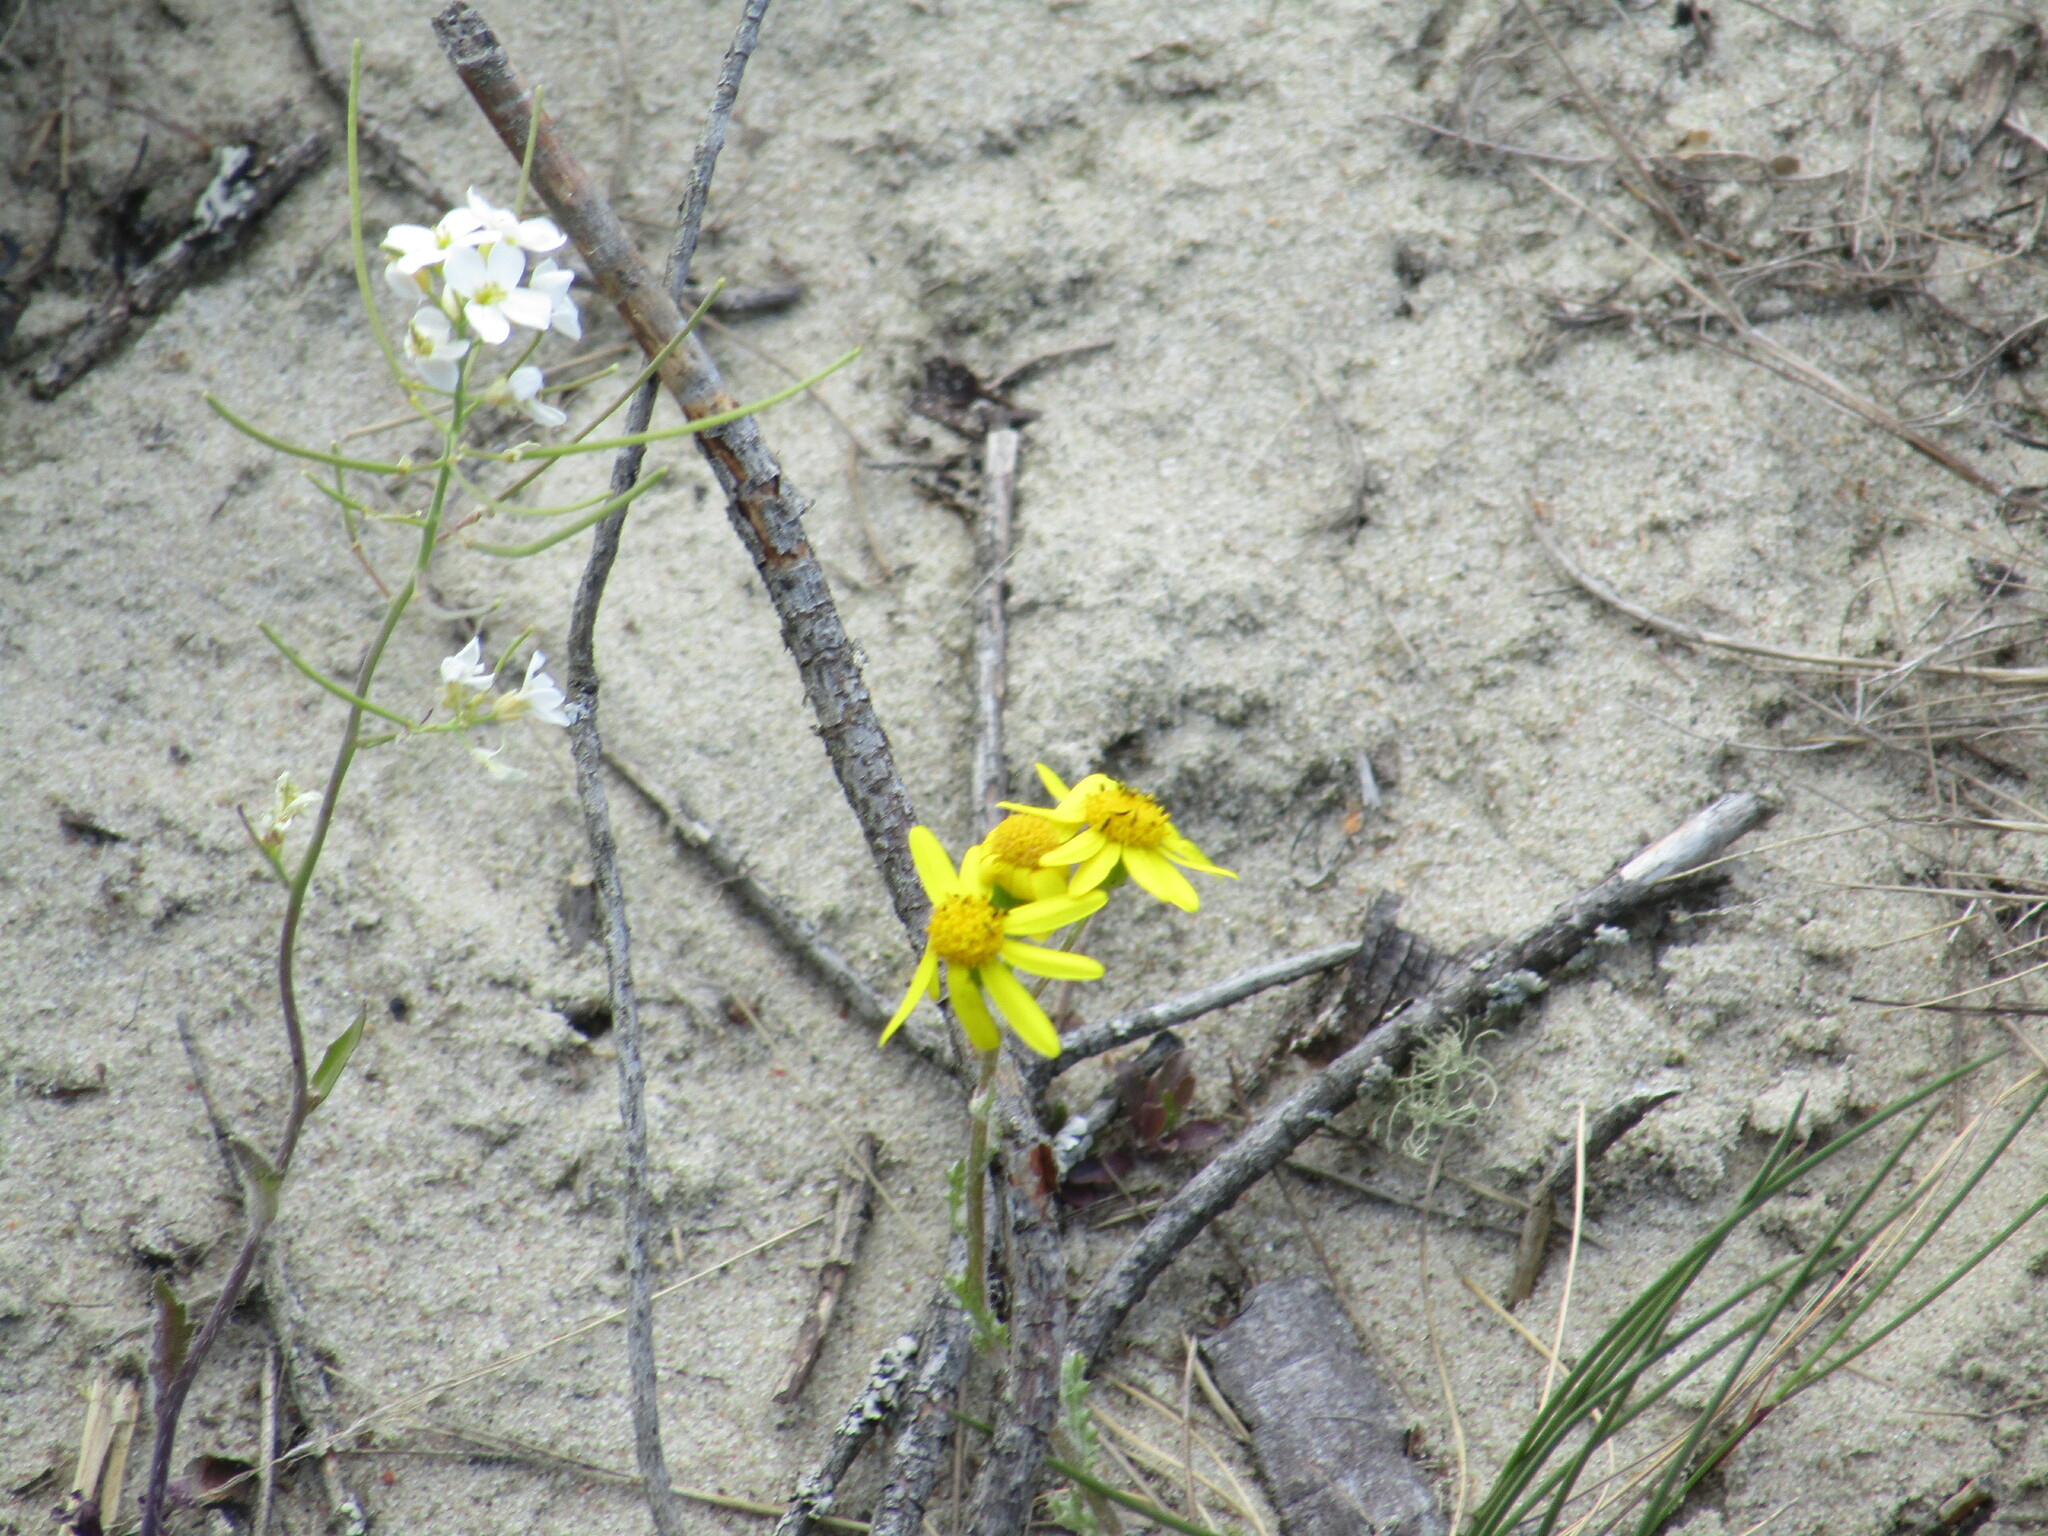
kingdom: Plantae
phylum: Tracheophyta
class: Magnoliopsida
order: Asterales
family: Asteraceae
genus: Senecio
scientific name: Senecio vernalis
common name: Eastern groundsel
